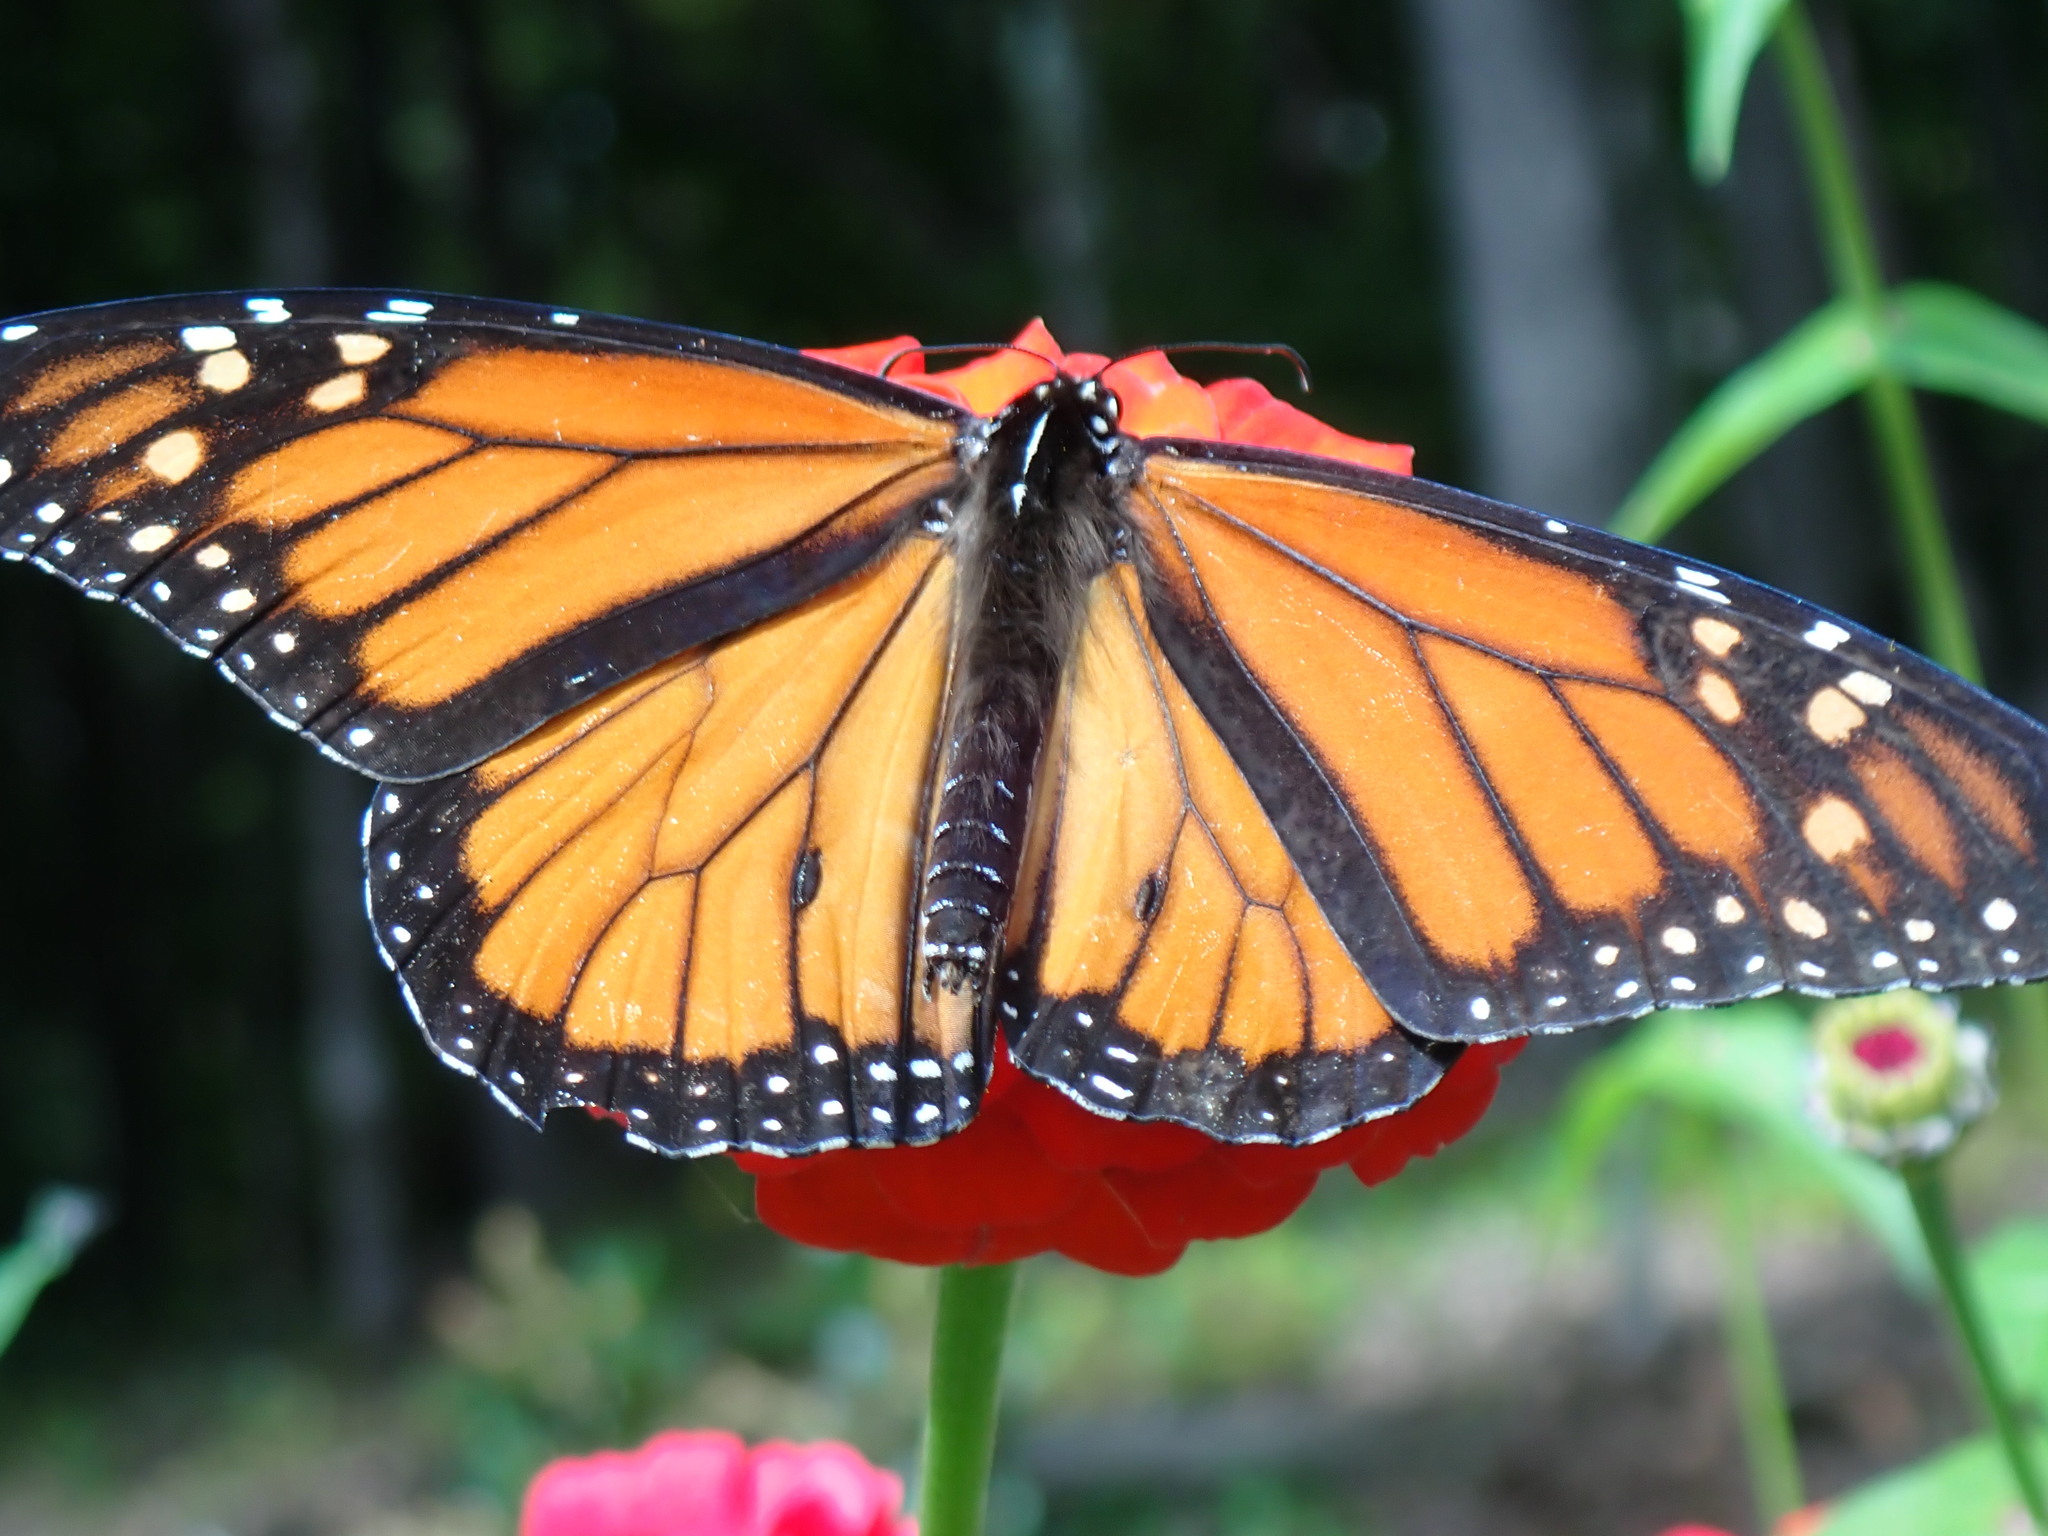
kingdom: Animalia
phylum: Arthropoda
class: Insecta
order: Lepidoptera
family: Nymphalidae
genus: Danaus
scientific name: Danaus plexippus
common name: Monarch
